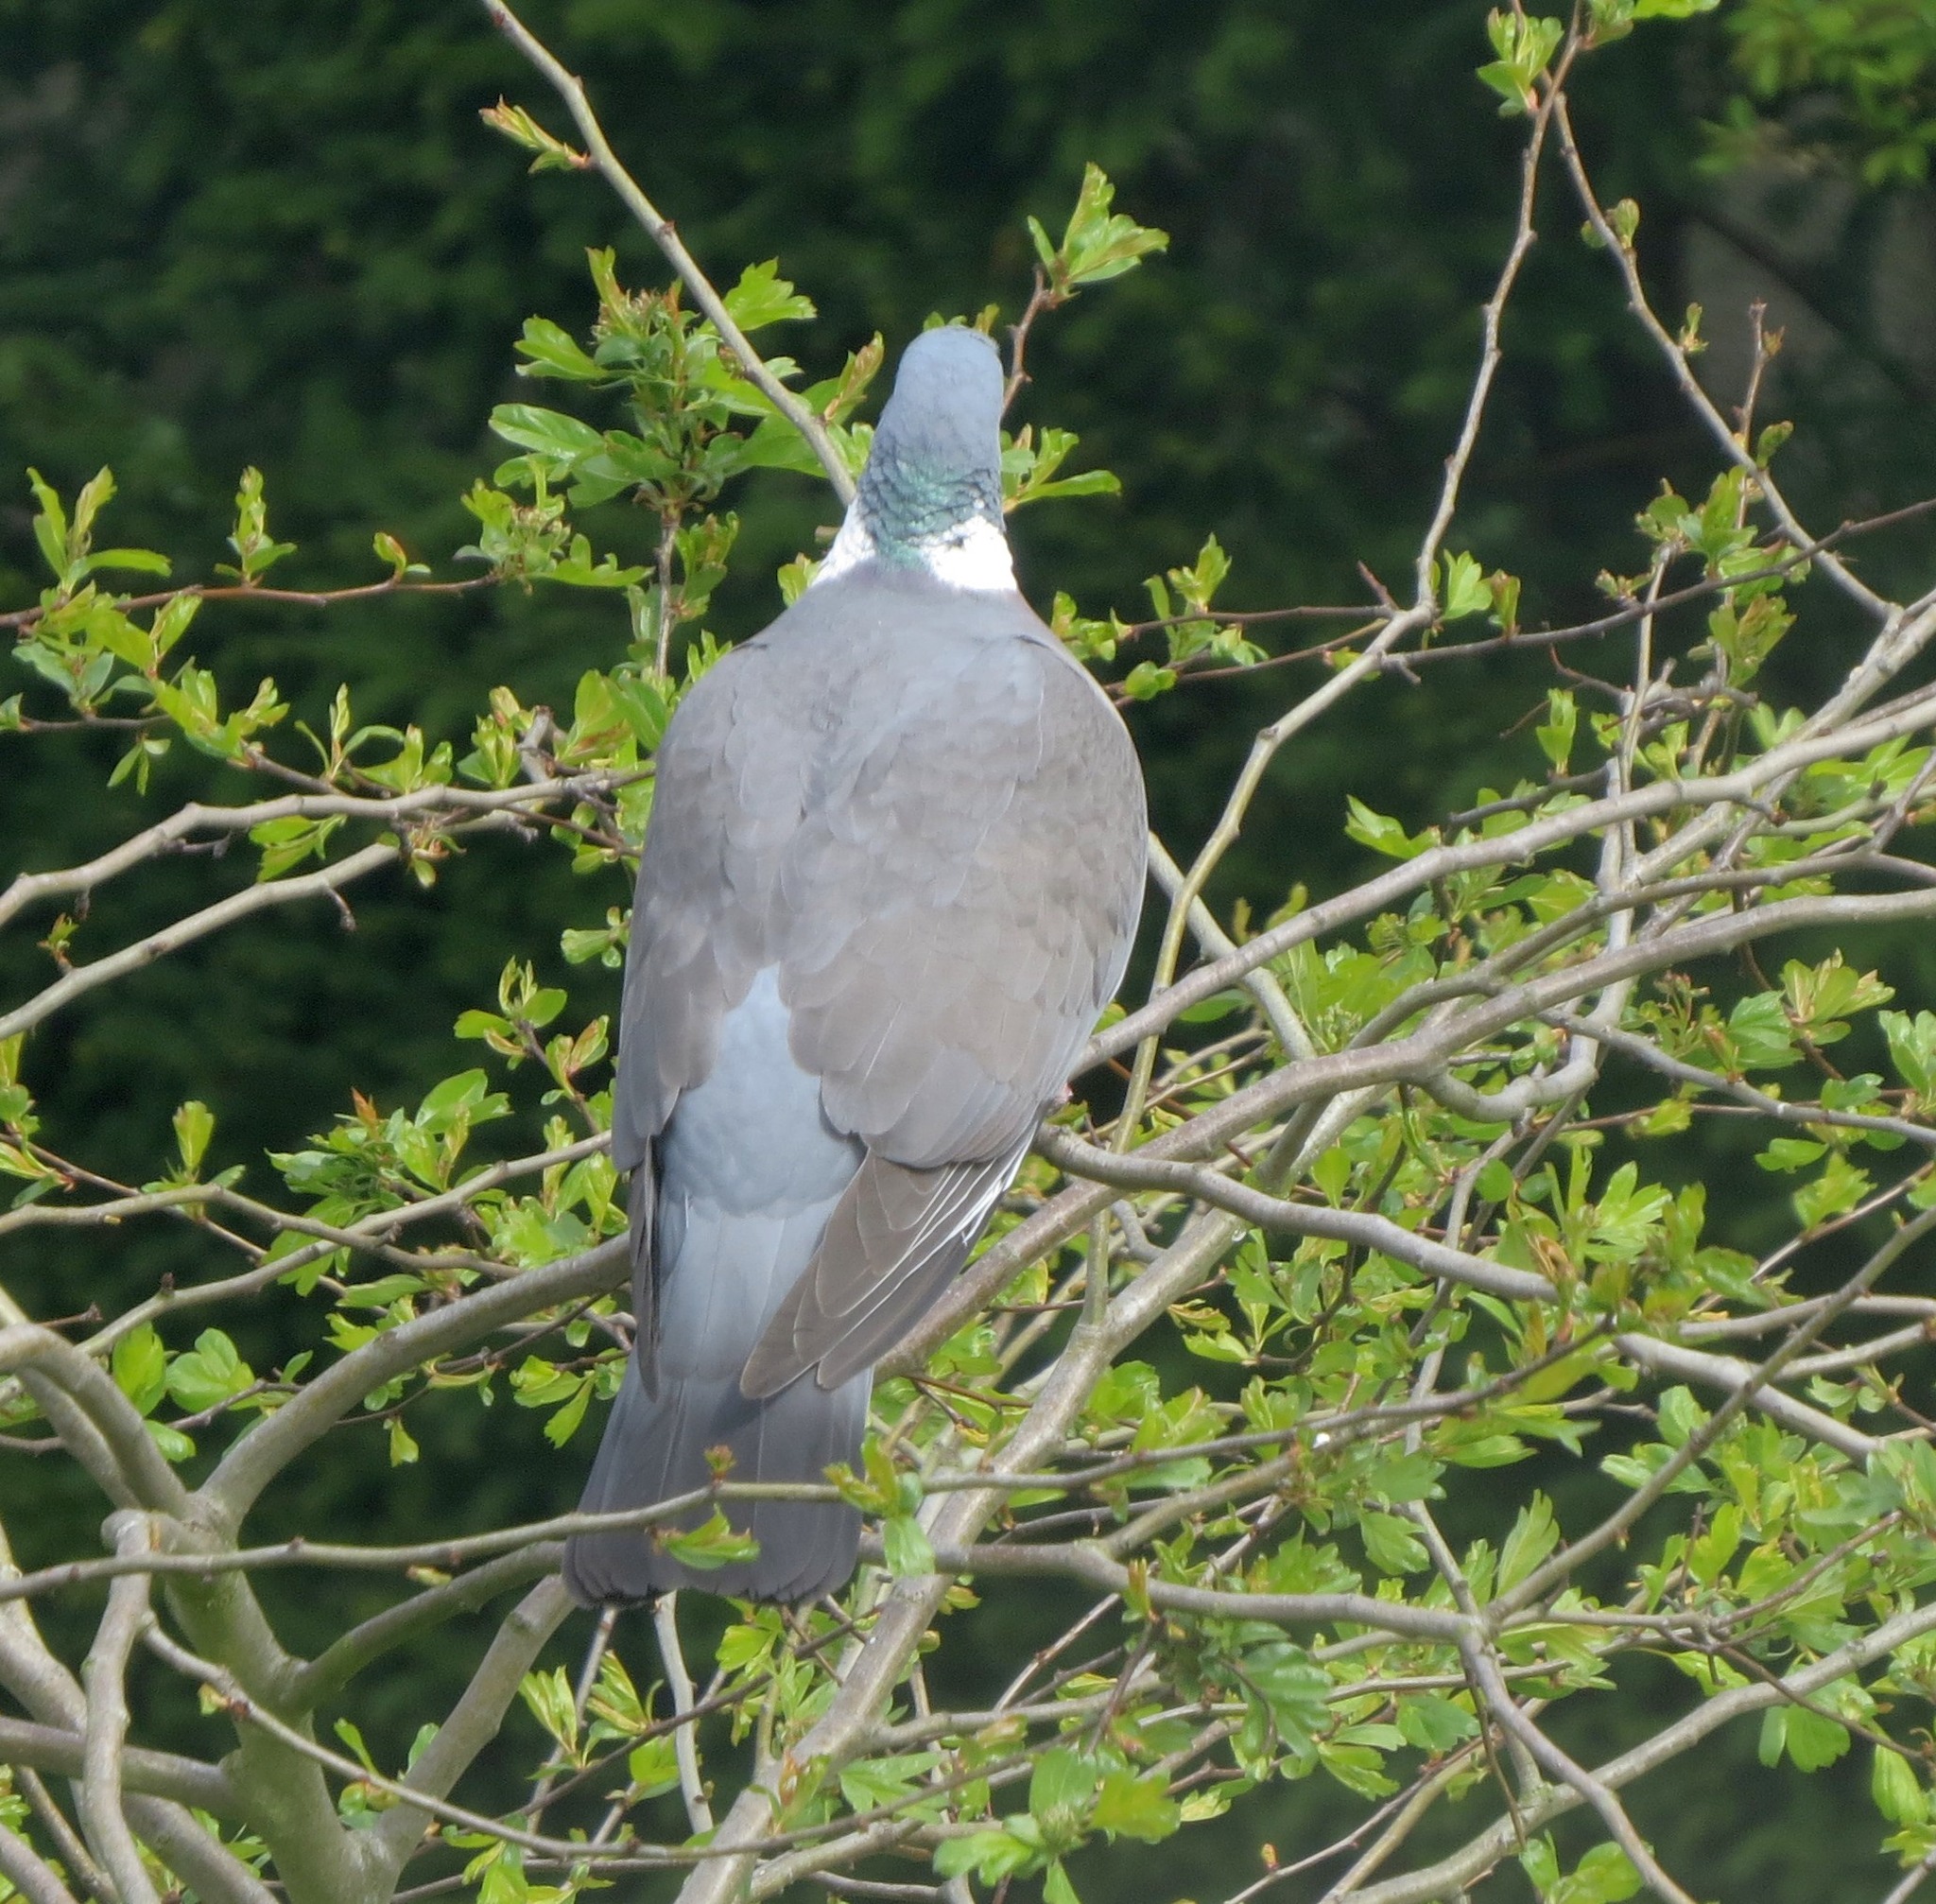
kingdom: Animalia
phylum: Chordata
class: Aves
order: Columbiformes
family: Columbidae
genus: Columba
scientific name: Columba palumbus
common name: Common wood pigeon
